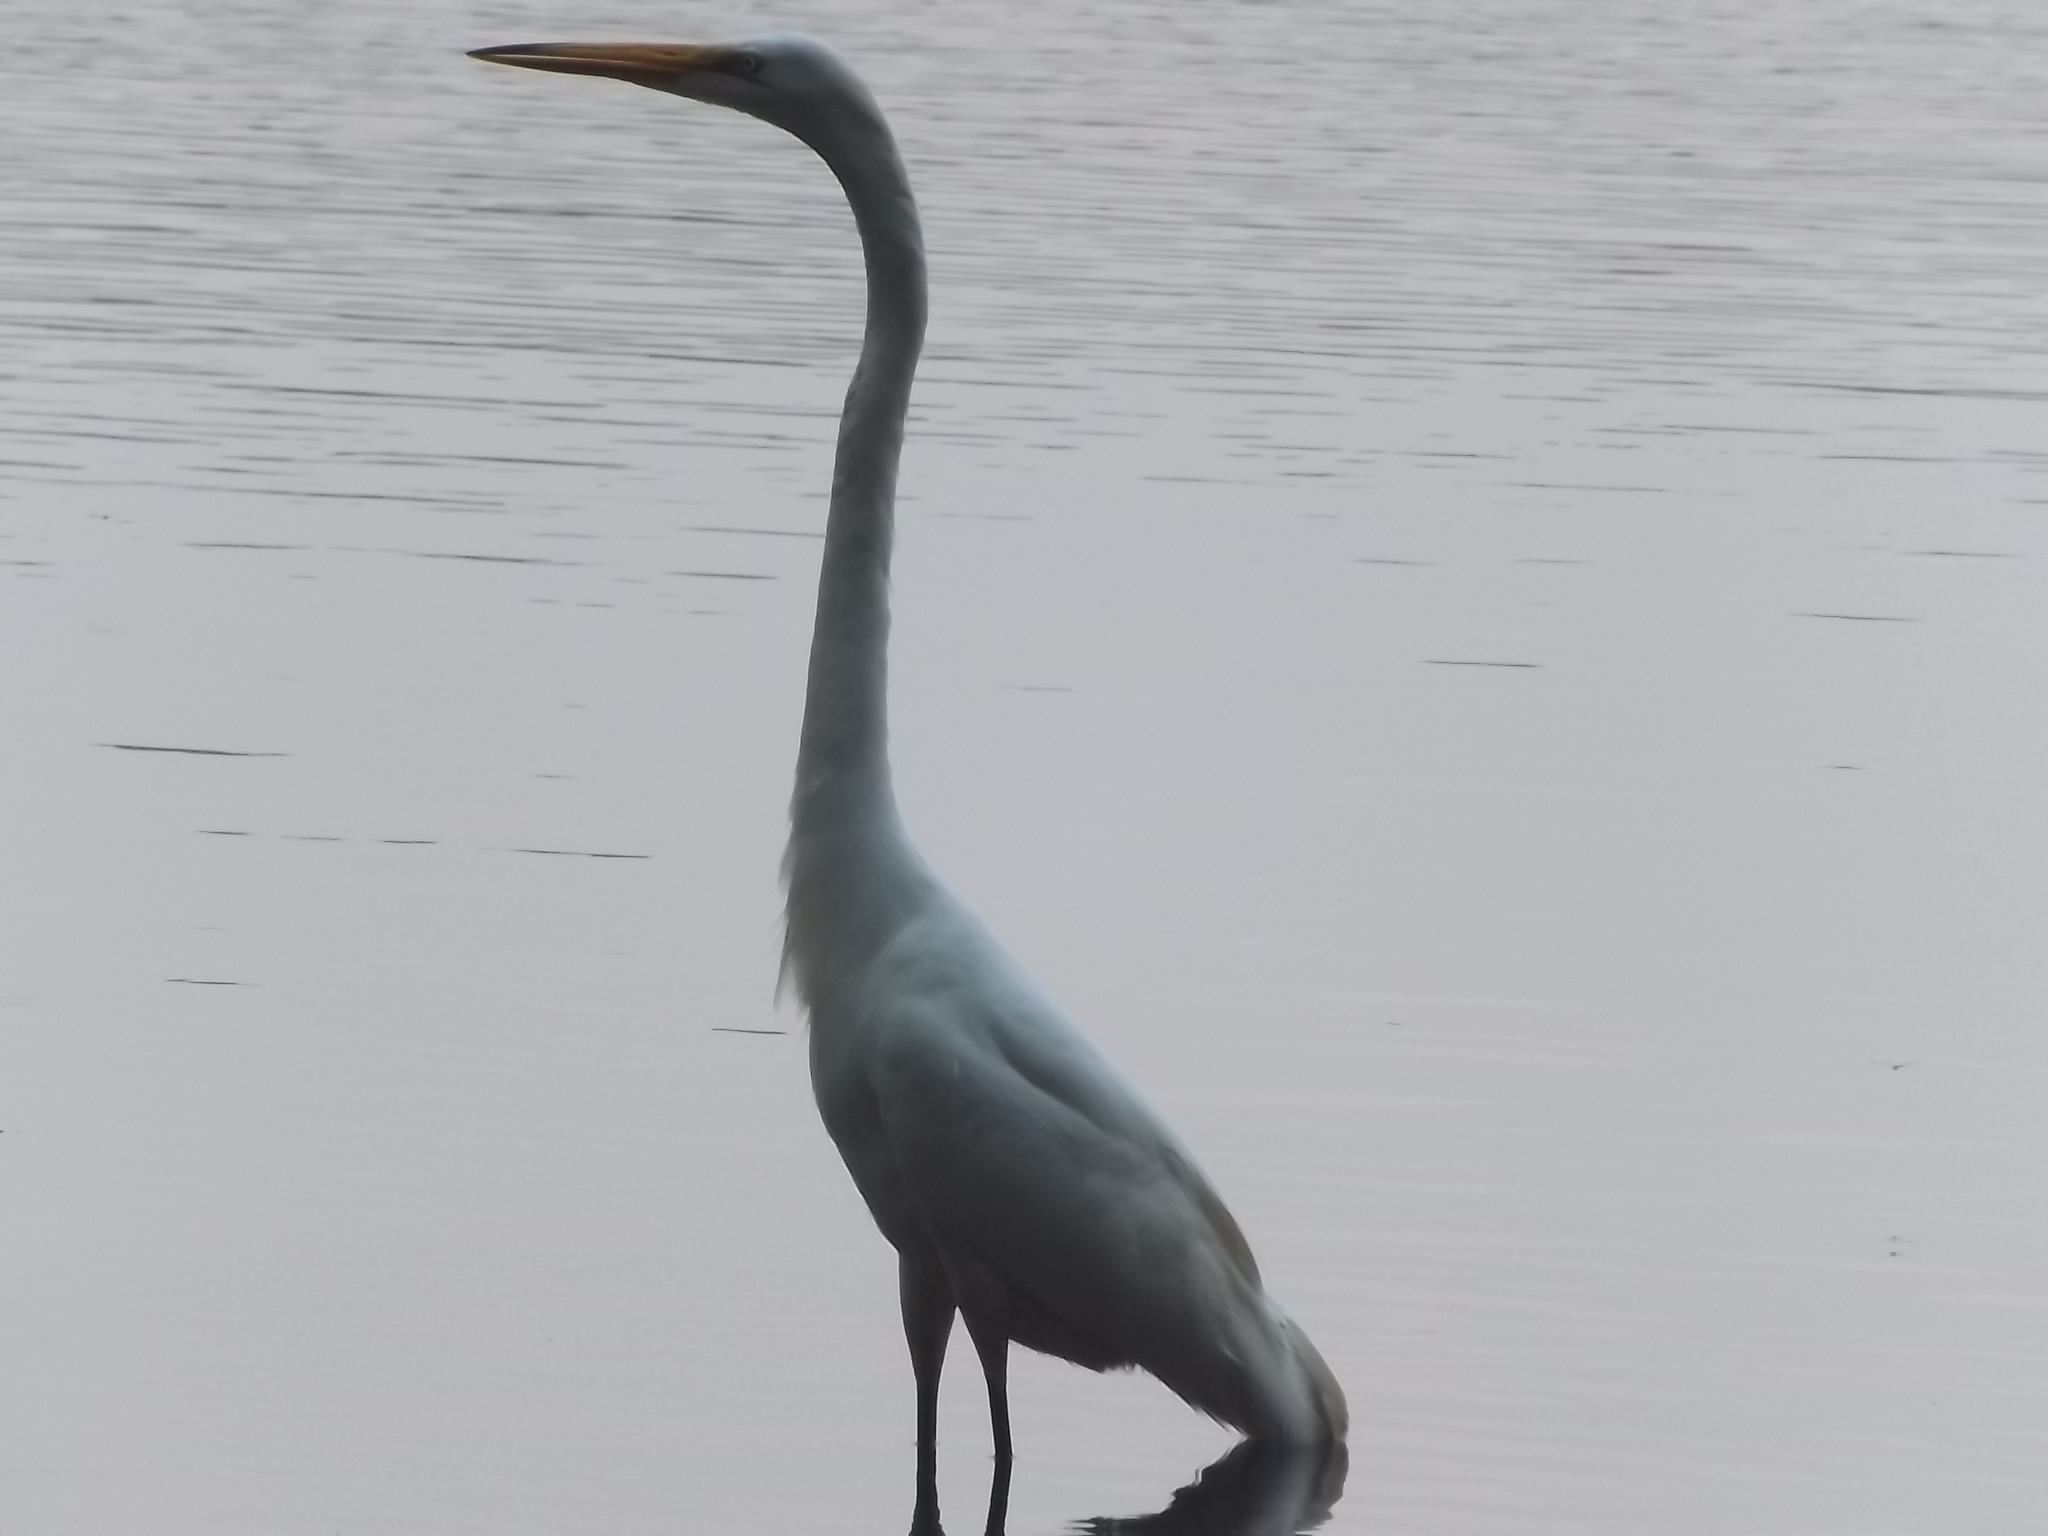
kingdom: Animalia
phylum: Chordata
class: Aves
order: Pelecaniformes
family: Ardeidae
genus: Ardea
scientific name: Ardea alba
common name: Great egret
